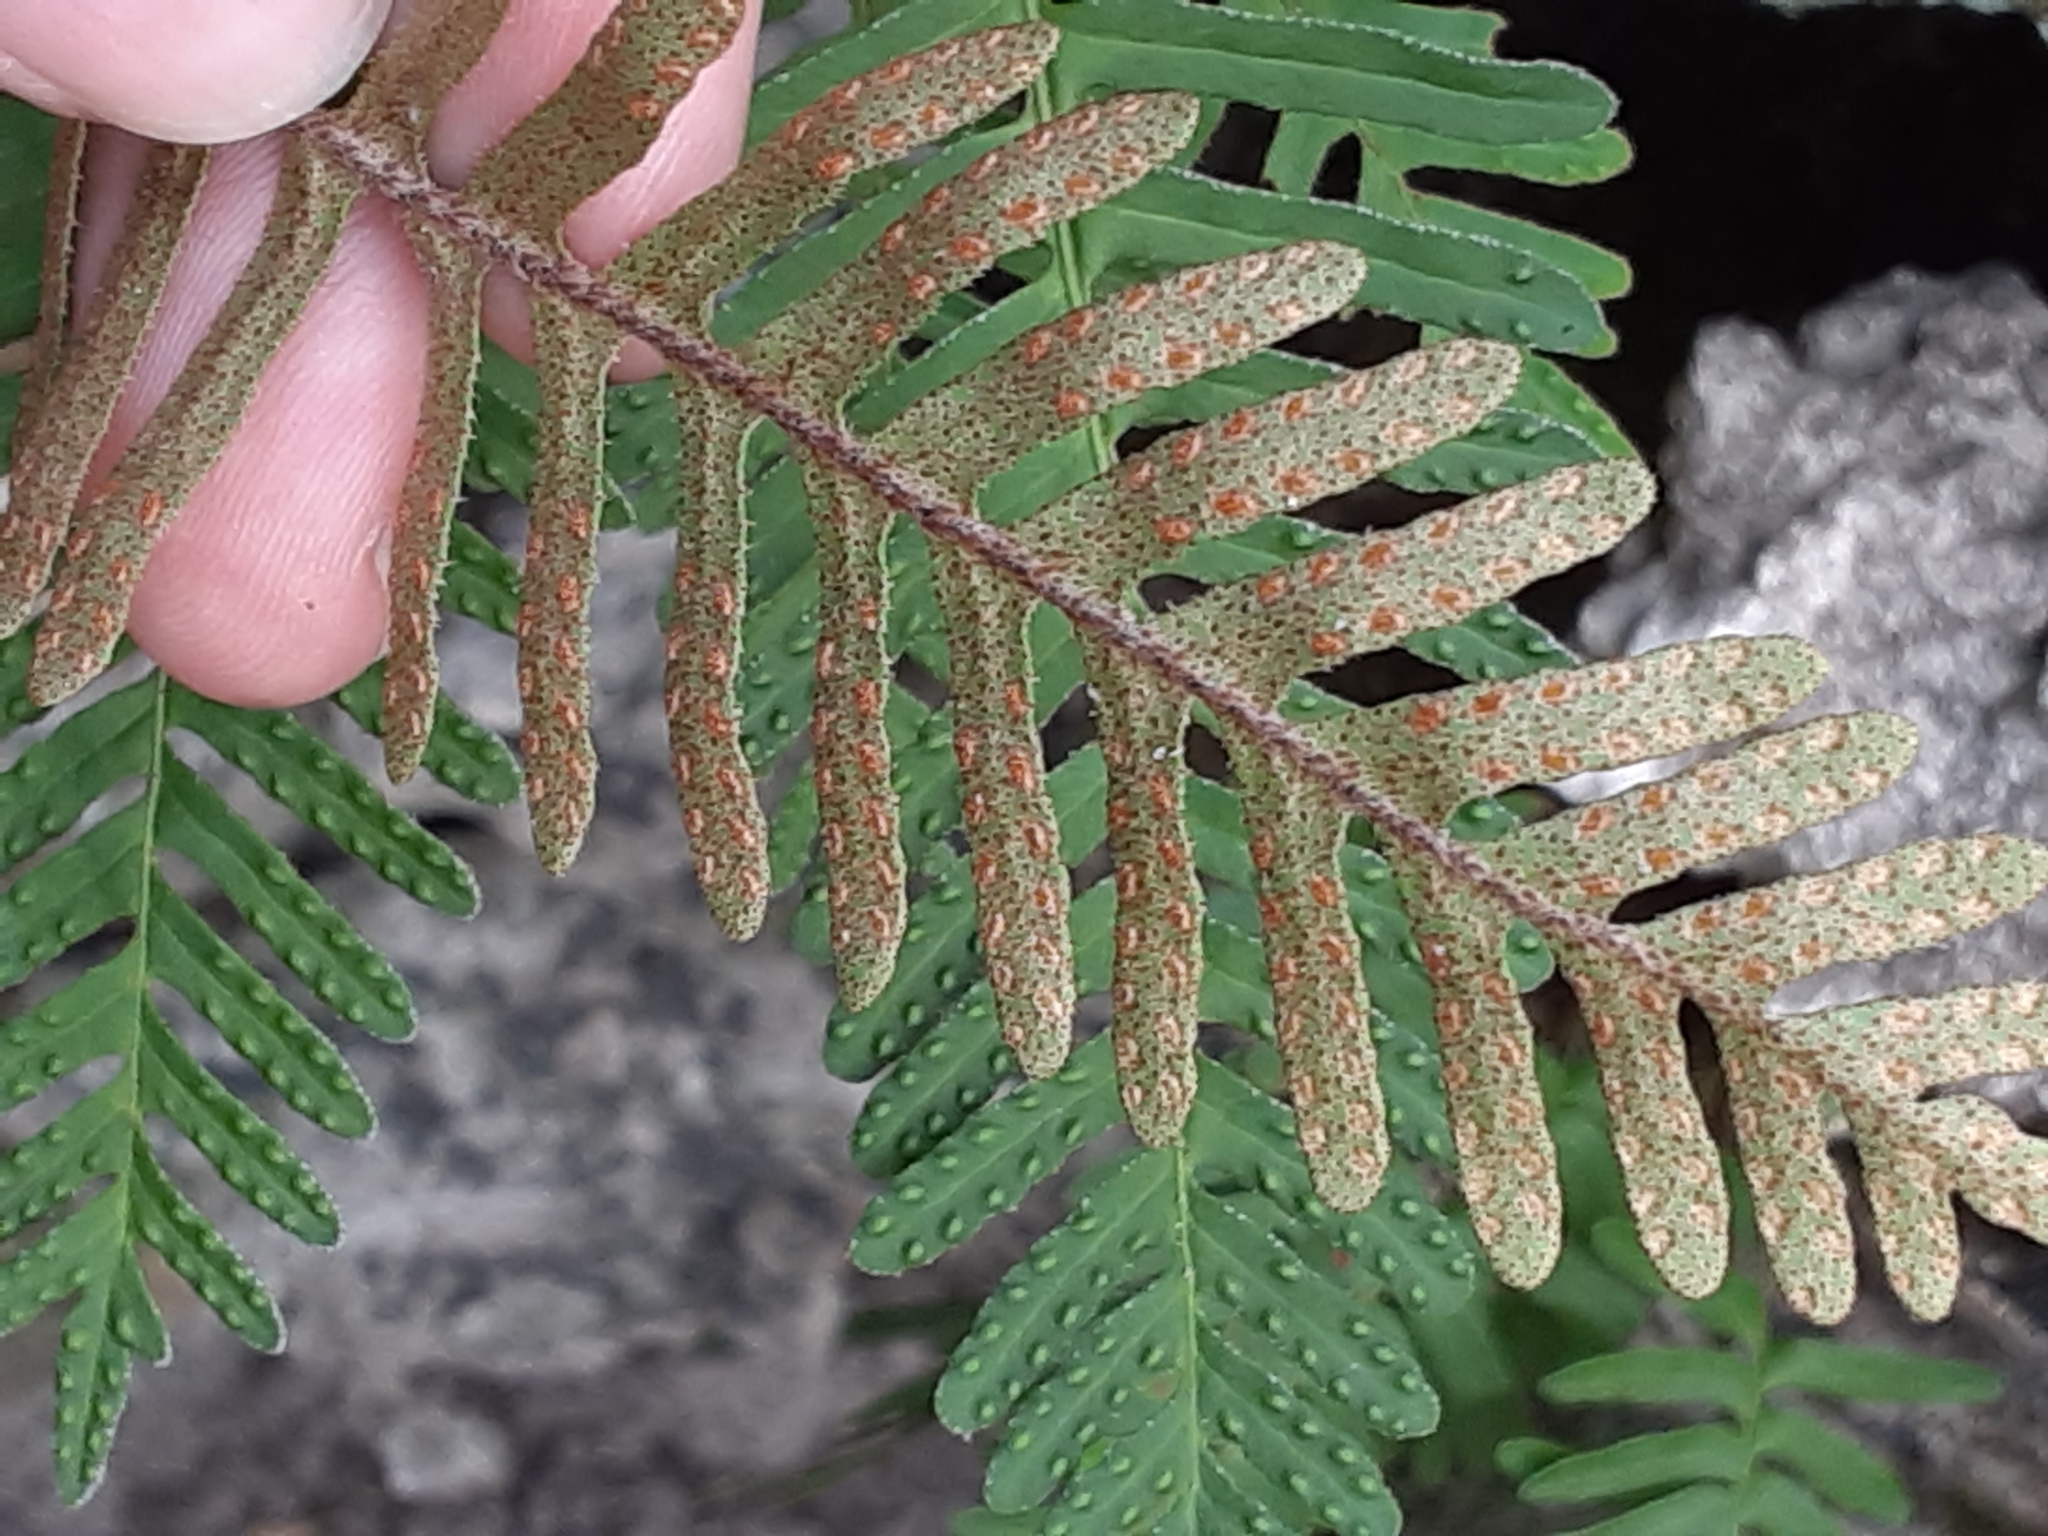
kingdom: Plantae
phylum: Tracheophyta
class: Polypodiopsida
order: Polypodiales
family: Polypodiaceae
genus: Pleopeltis
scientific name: Pleopeltis michauxiana
